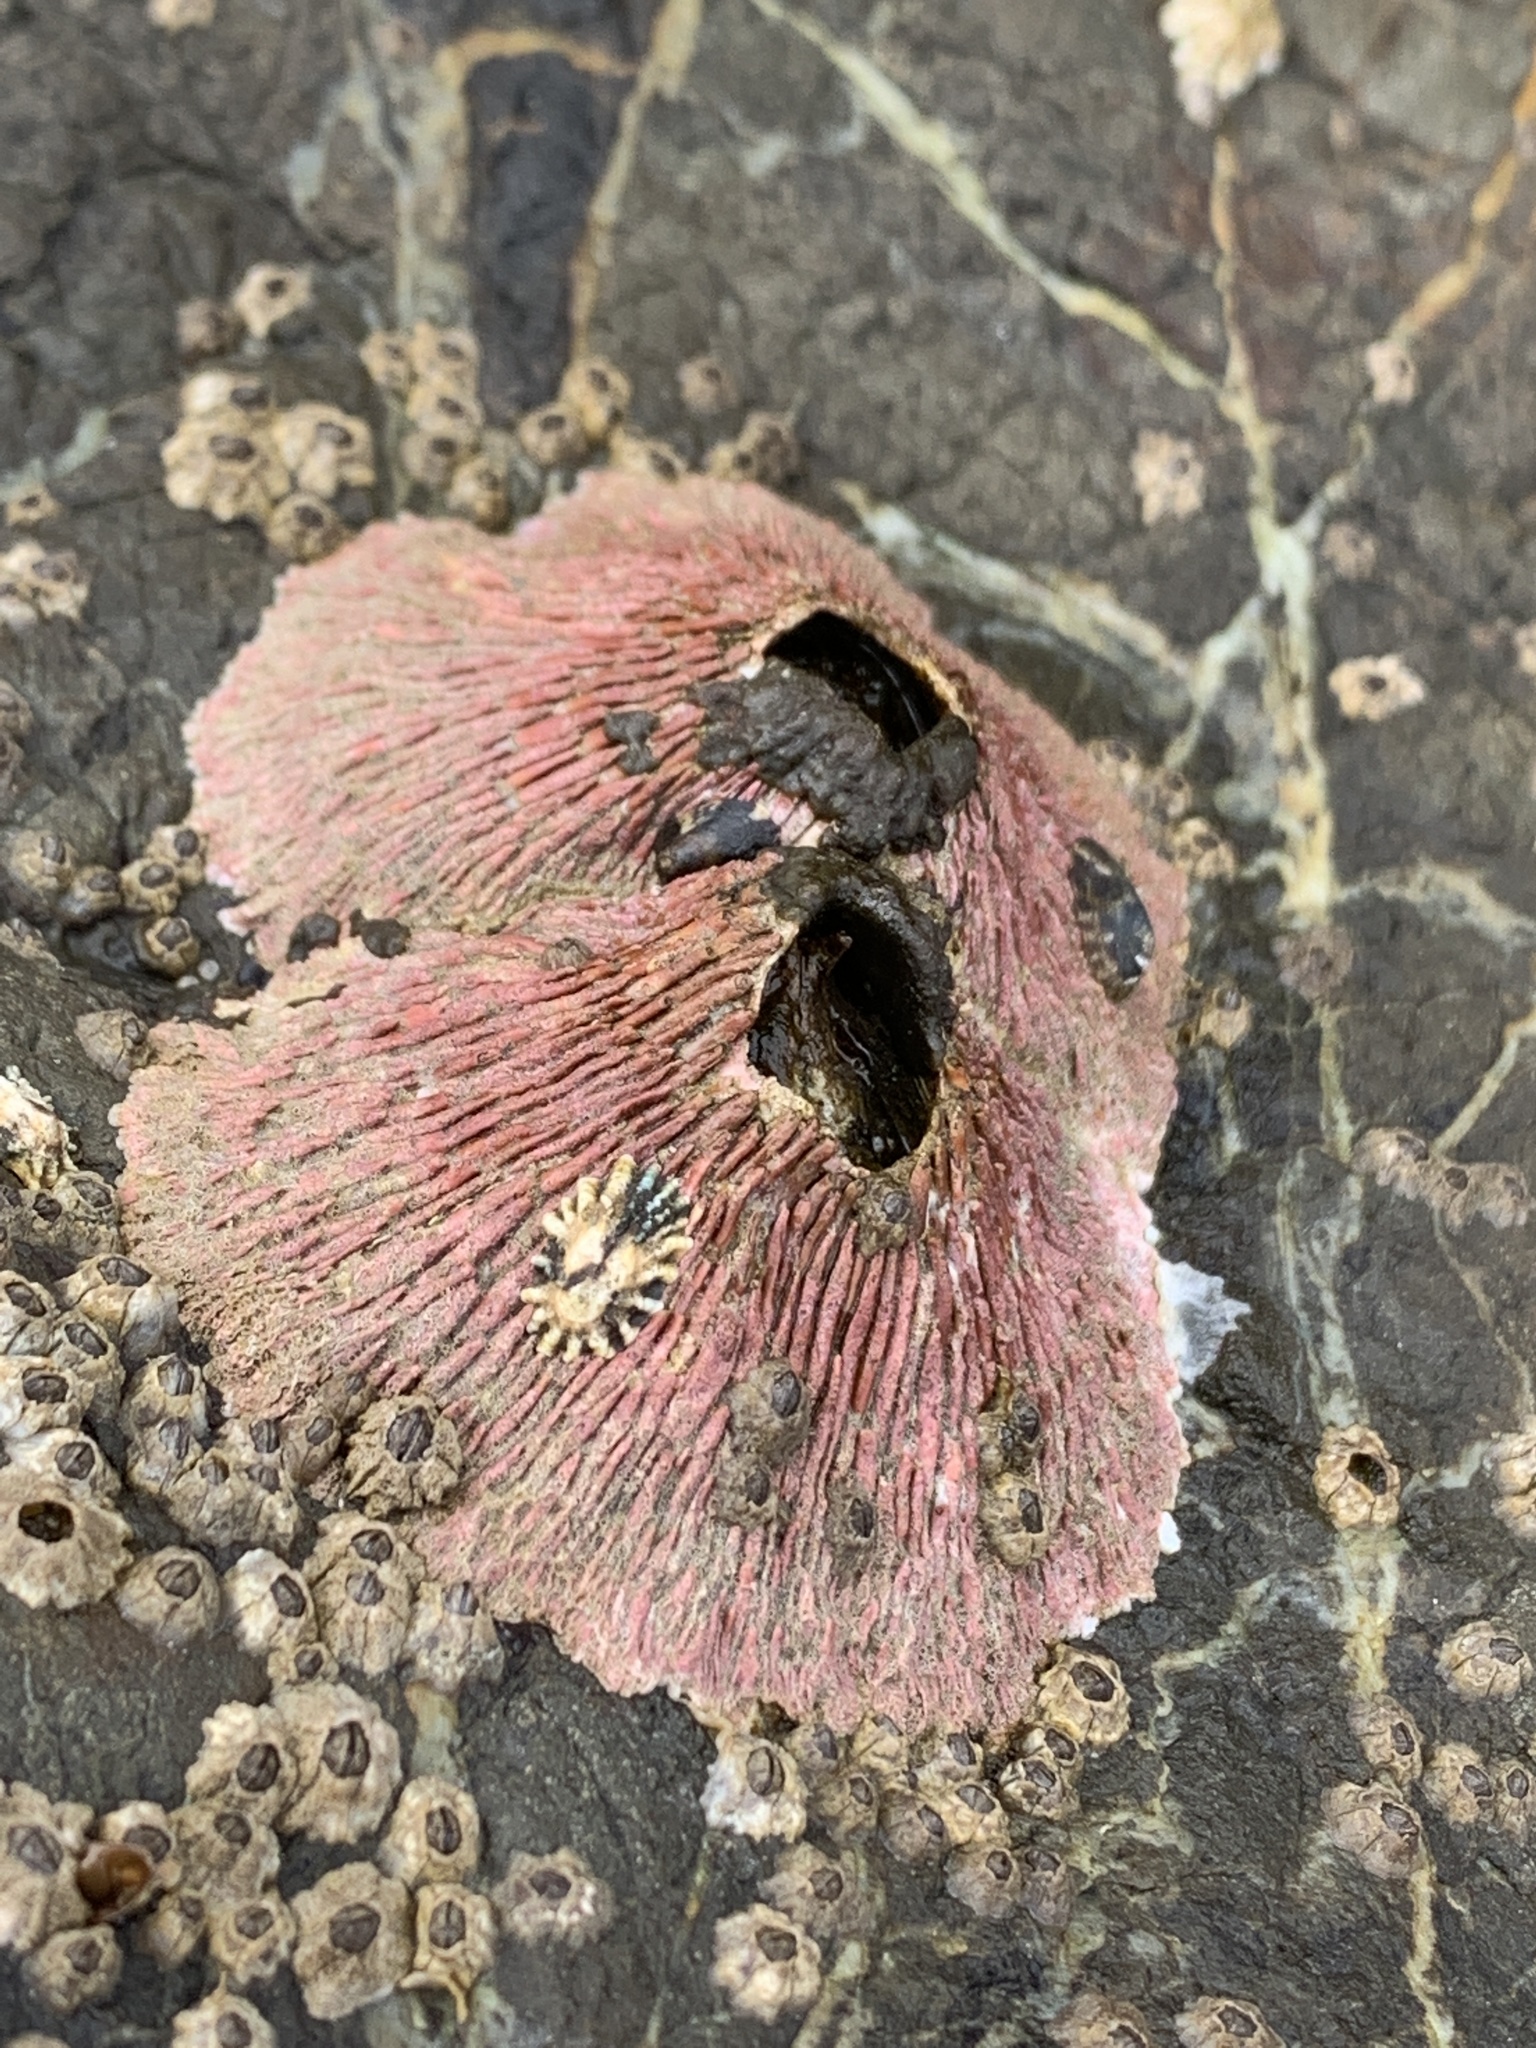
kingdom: Animalia
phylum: Arthropoda
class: Maxillopoda
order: Sessilia
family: Tetraclitidae
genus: Tetraclita
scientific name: Tetraclita rubescens
